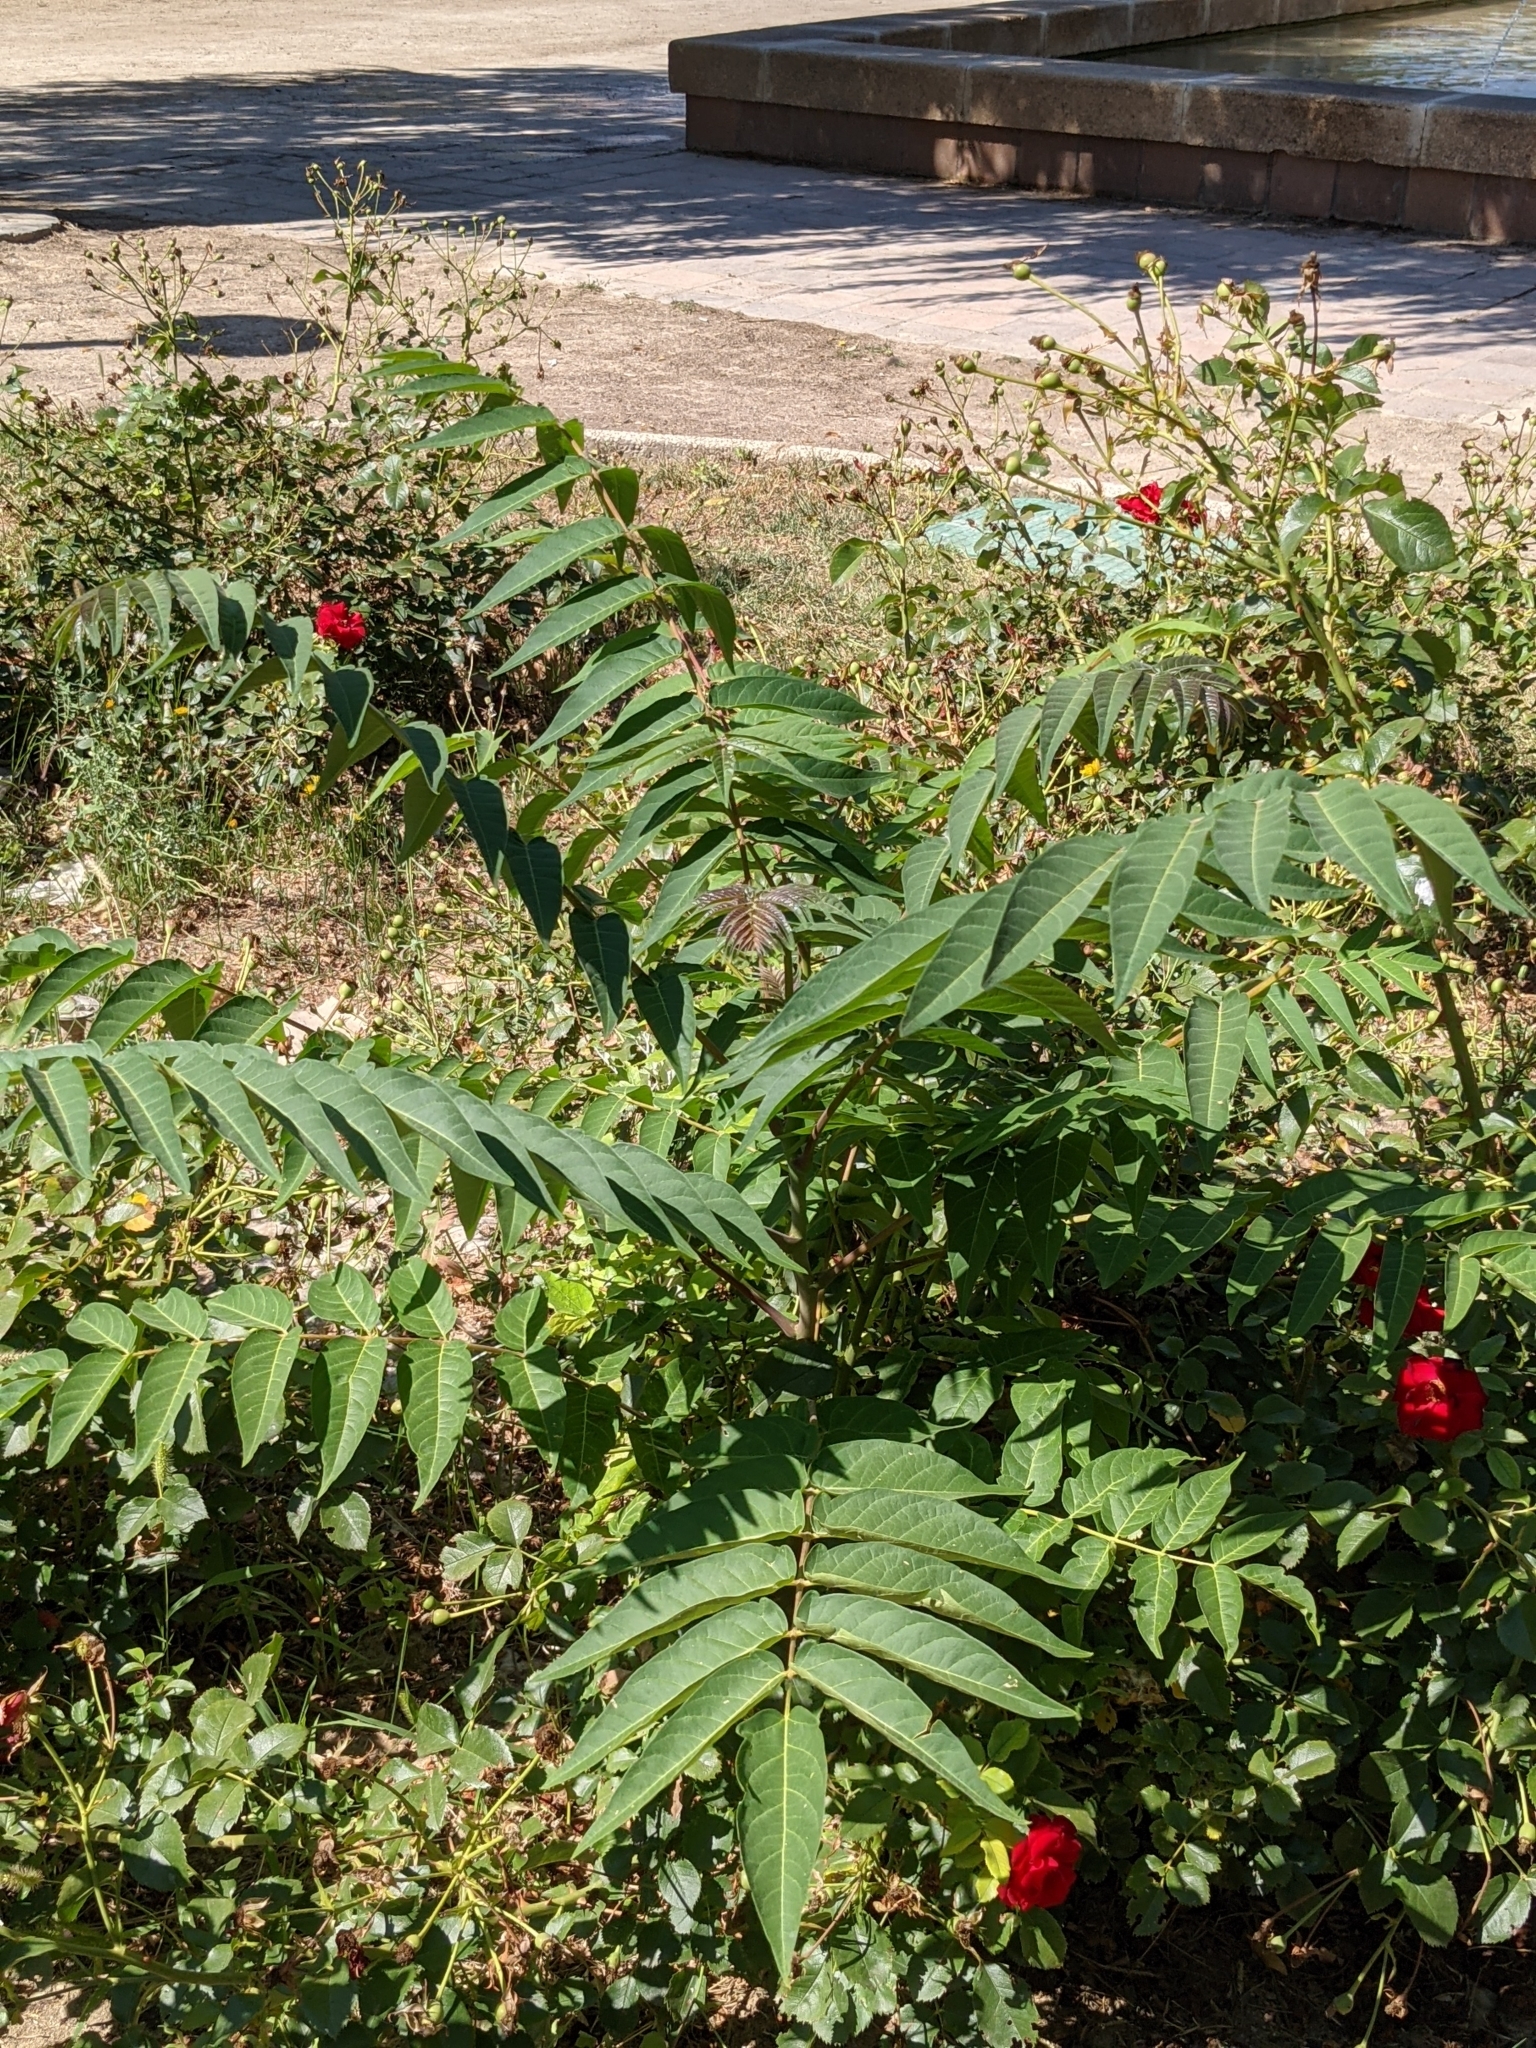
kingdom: Plantae
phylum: Tracheophyta
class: Magnoliopsida
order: Sapindales
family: Simaroubaceae
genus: Ailanthus
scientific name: Ailanthus altissima
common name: Tree-of-heaven
